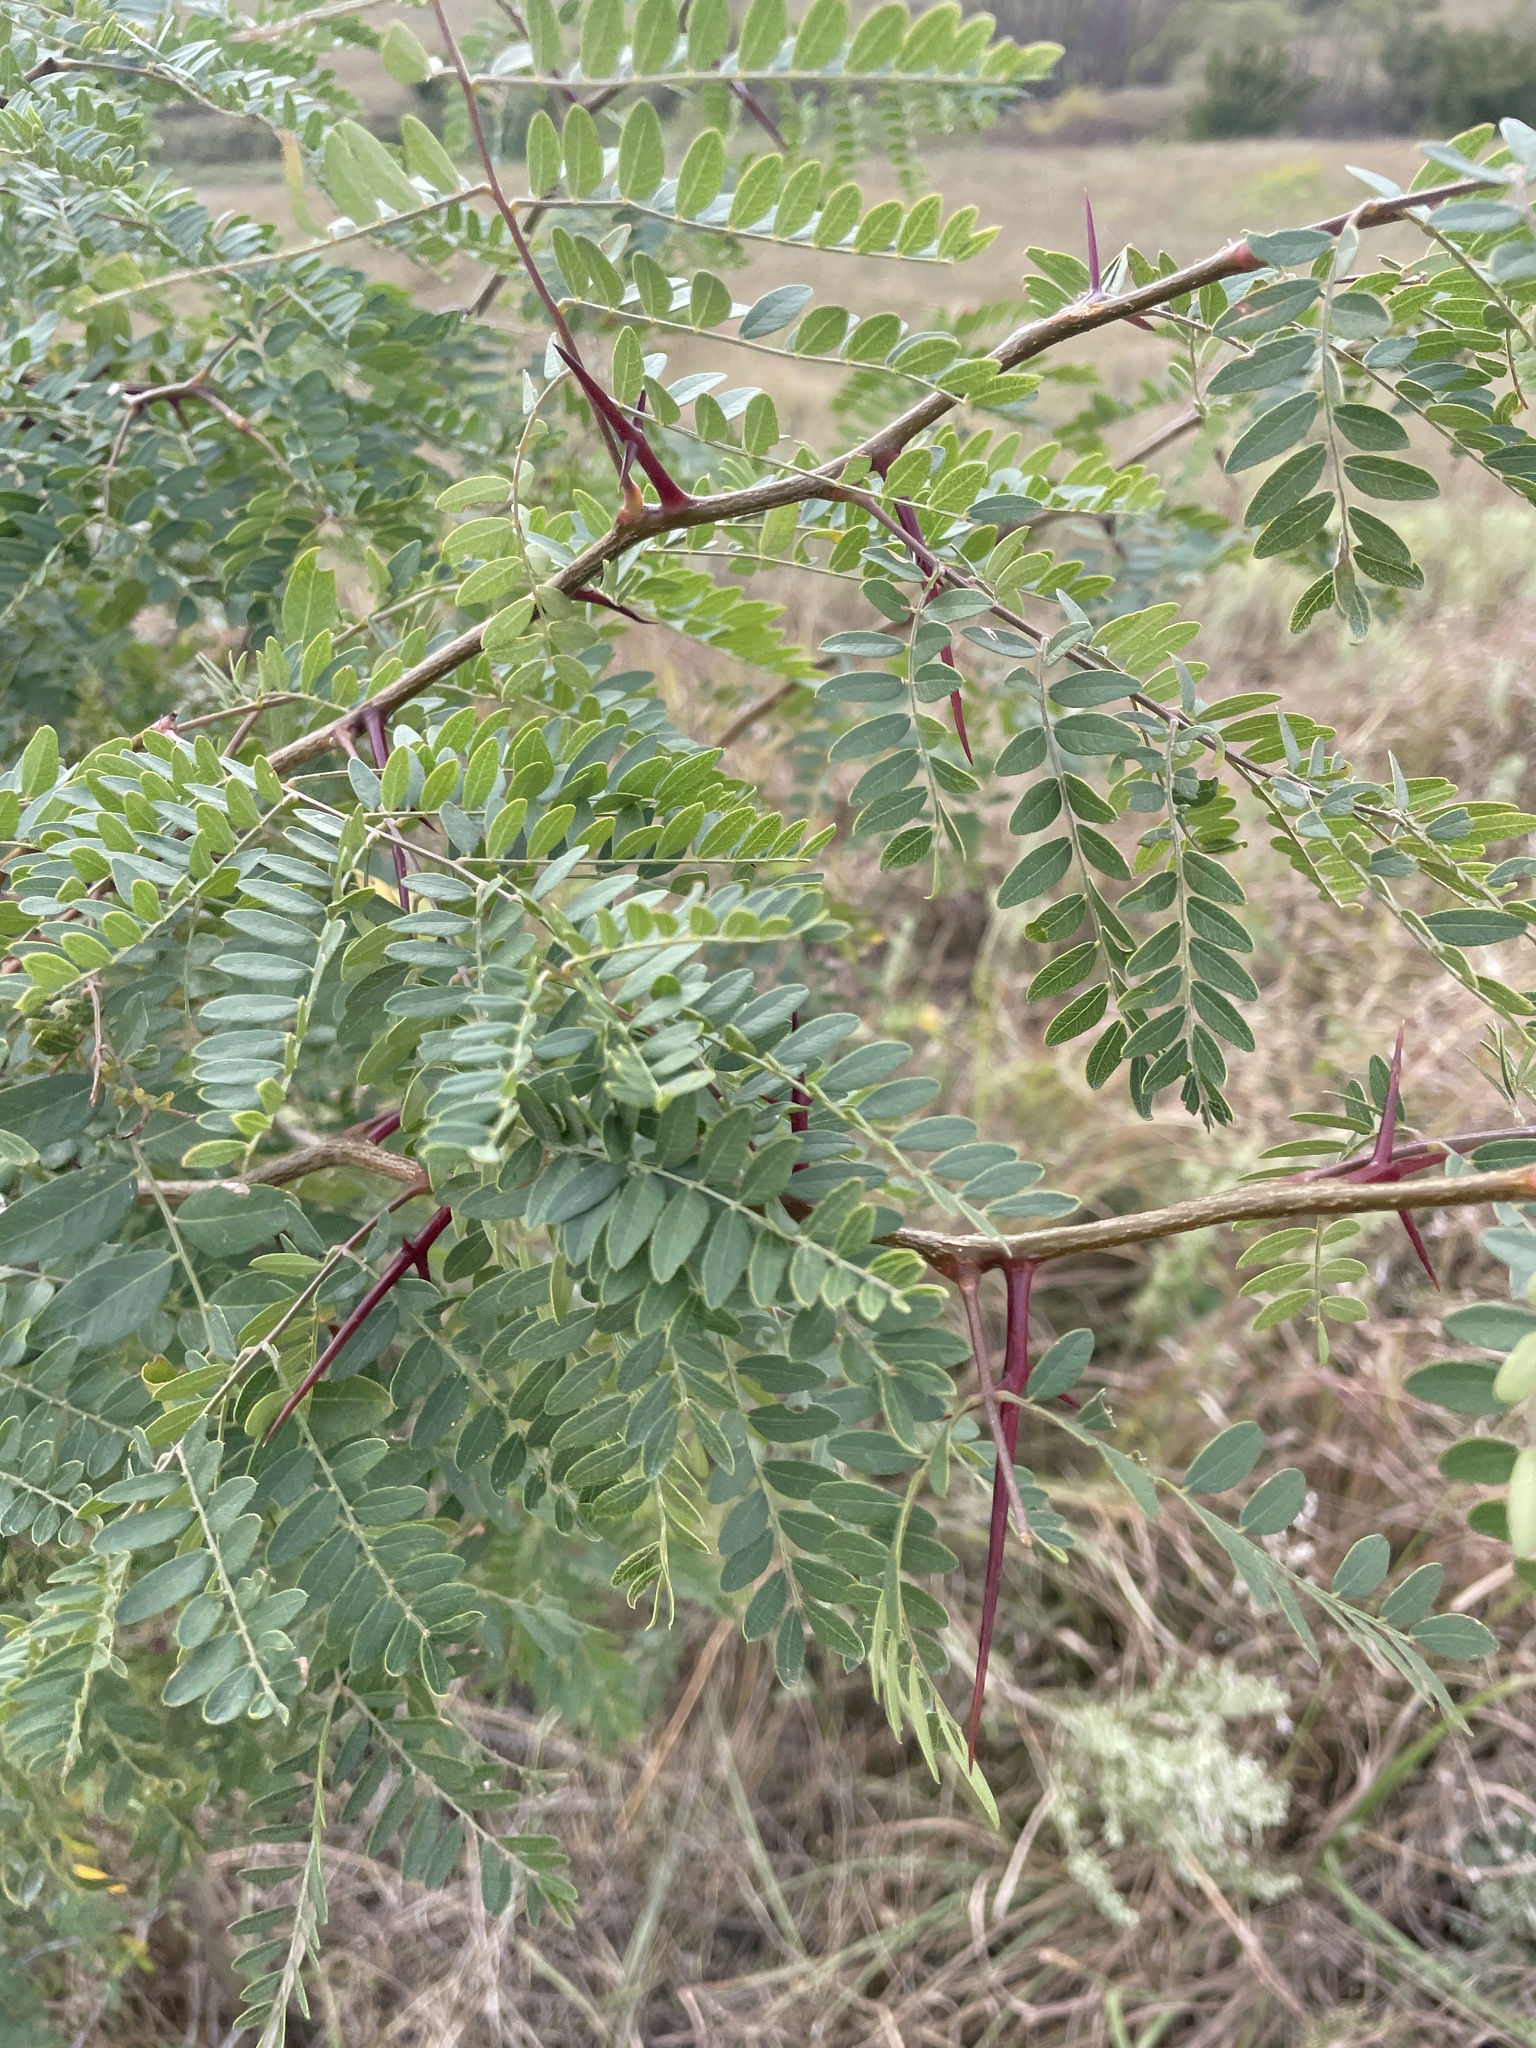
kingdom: Plantae
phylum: Tracheophyta
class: Magnoliopsida
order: Fabales
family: Fabaceae
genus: Gleditsia
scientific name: Gleditsia triacanthos
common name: Common honeylocust
